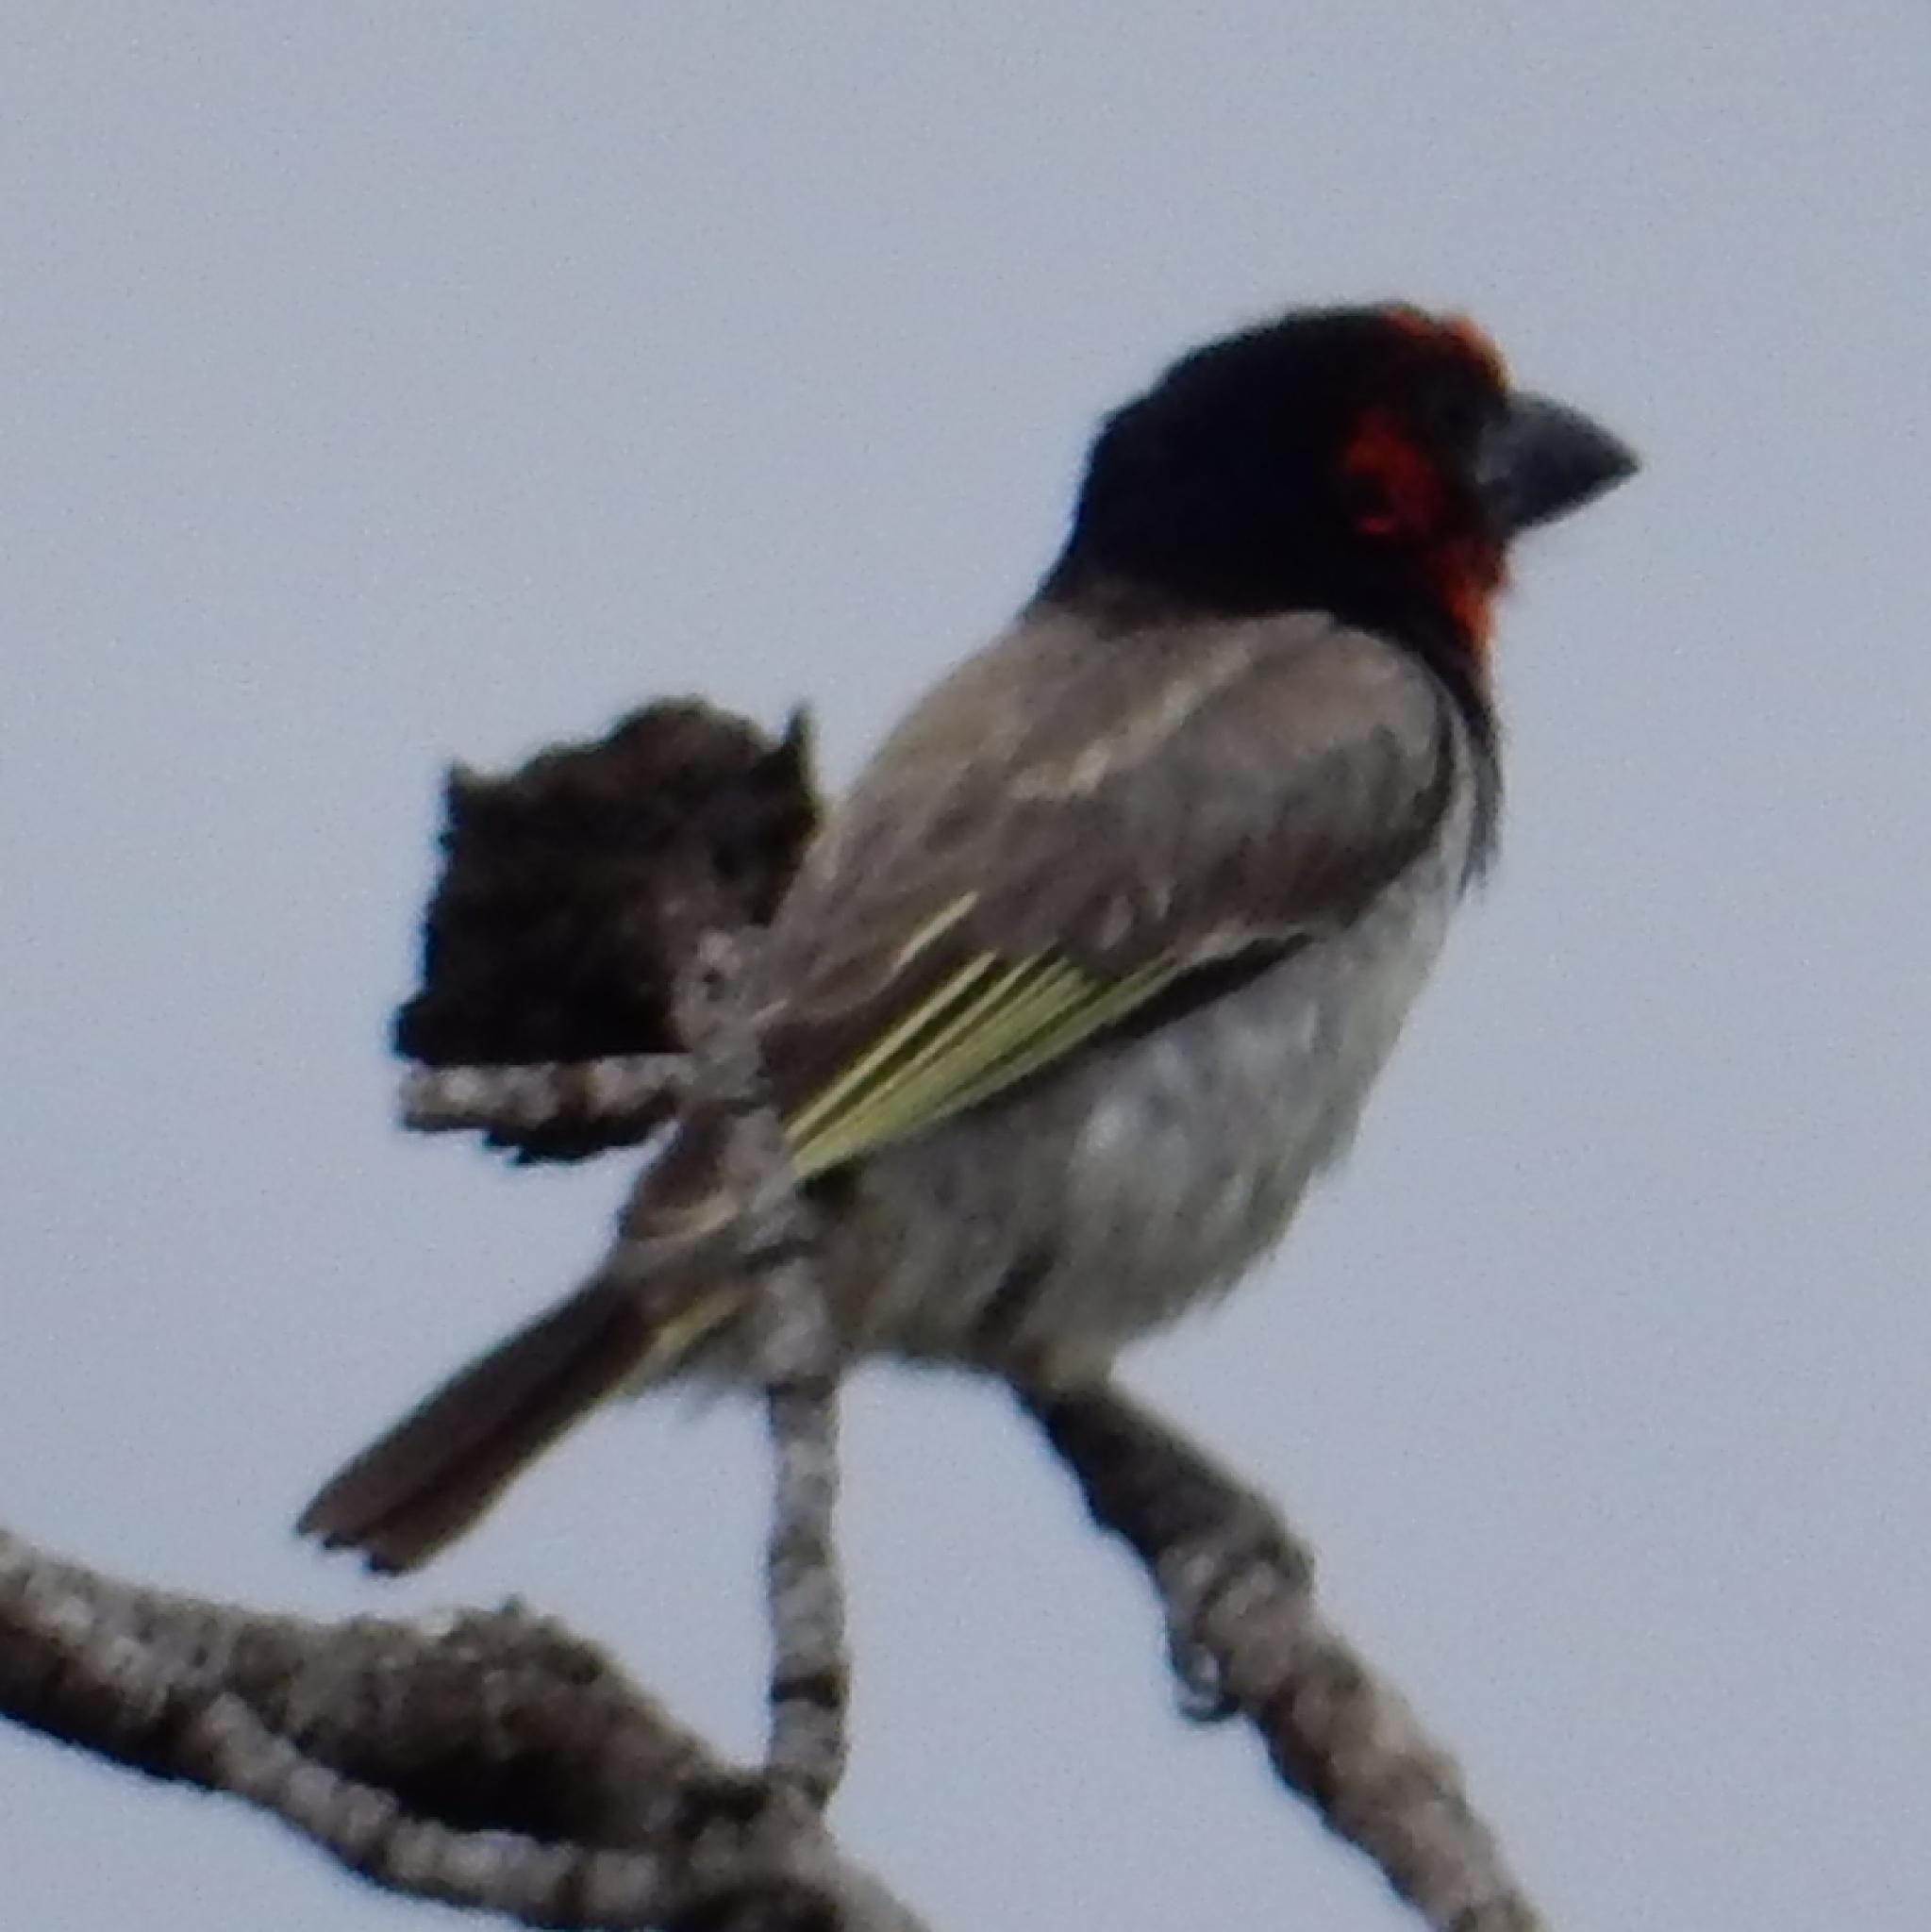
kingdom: Animalia
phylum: Chordata
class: Aves
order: Piciformes
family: Lybiidae
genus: Lybius
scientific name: Lybius torquatus
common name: Black-collared barbet
